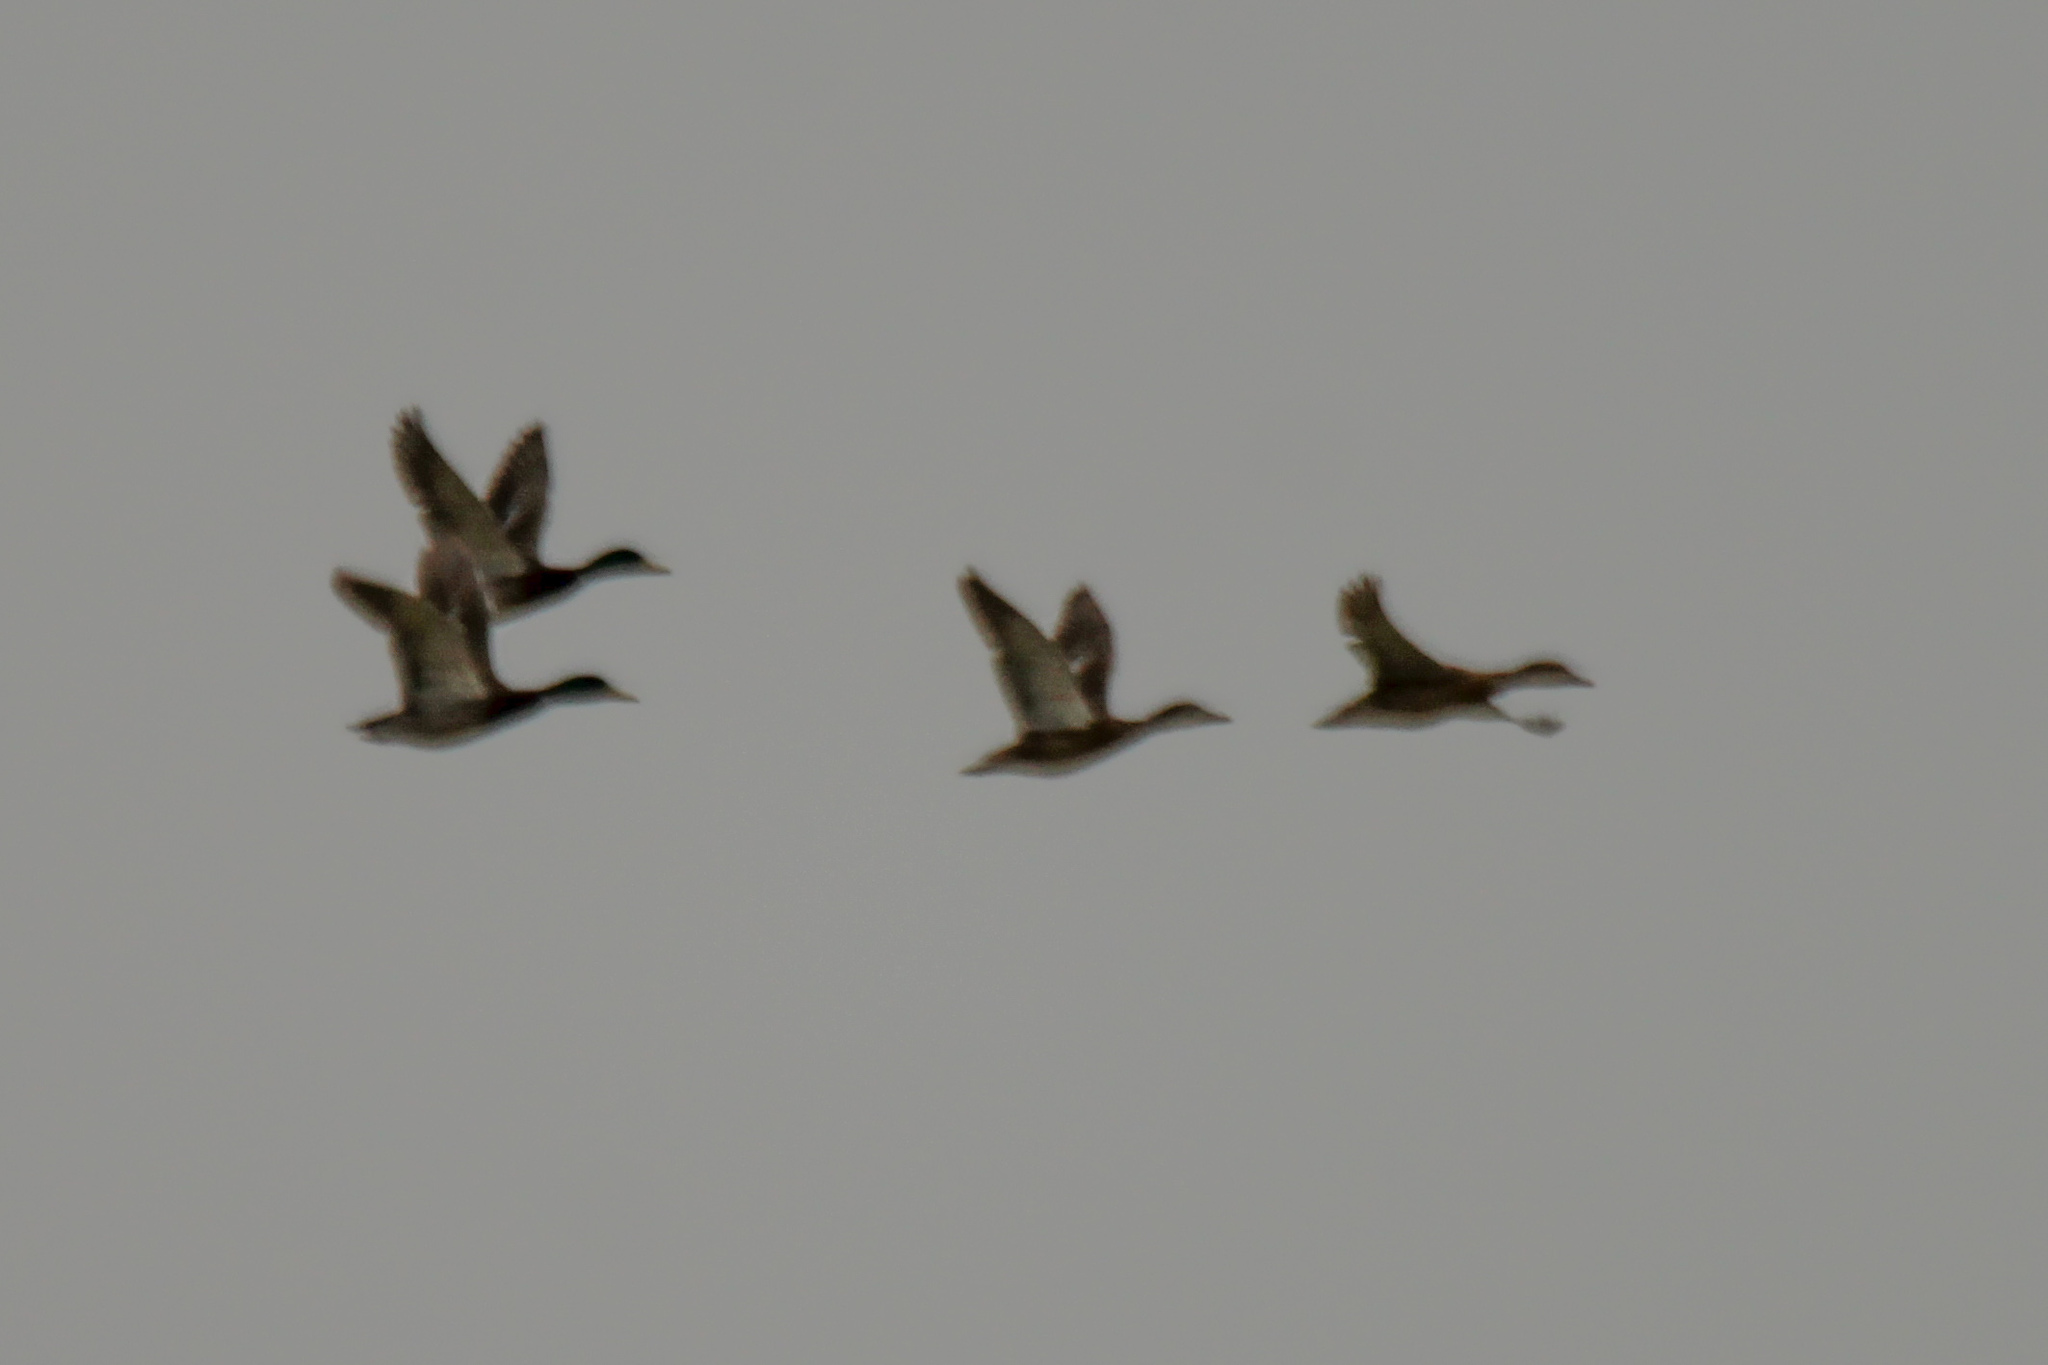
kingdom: Animalia
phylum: Chordata
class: Aves
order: Anseriformes
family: Anatidae
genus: Anas
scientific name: Anas platyrhynchos
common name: Mallard
